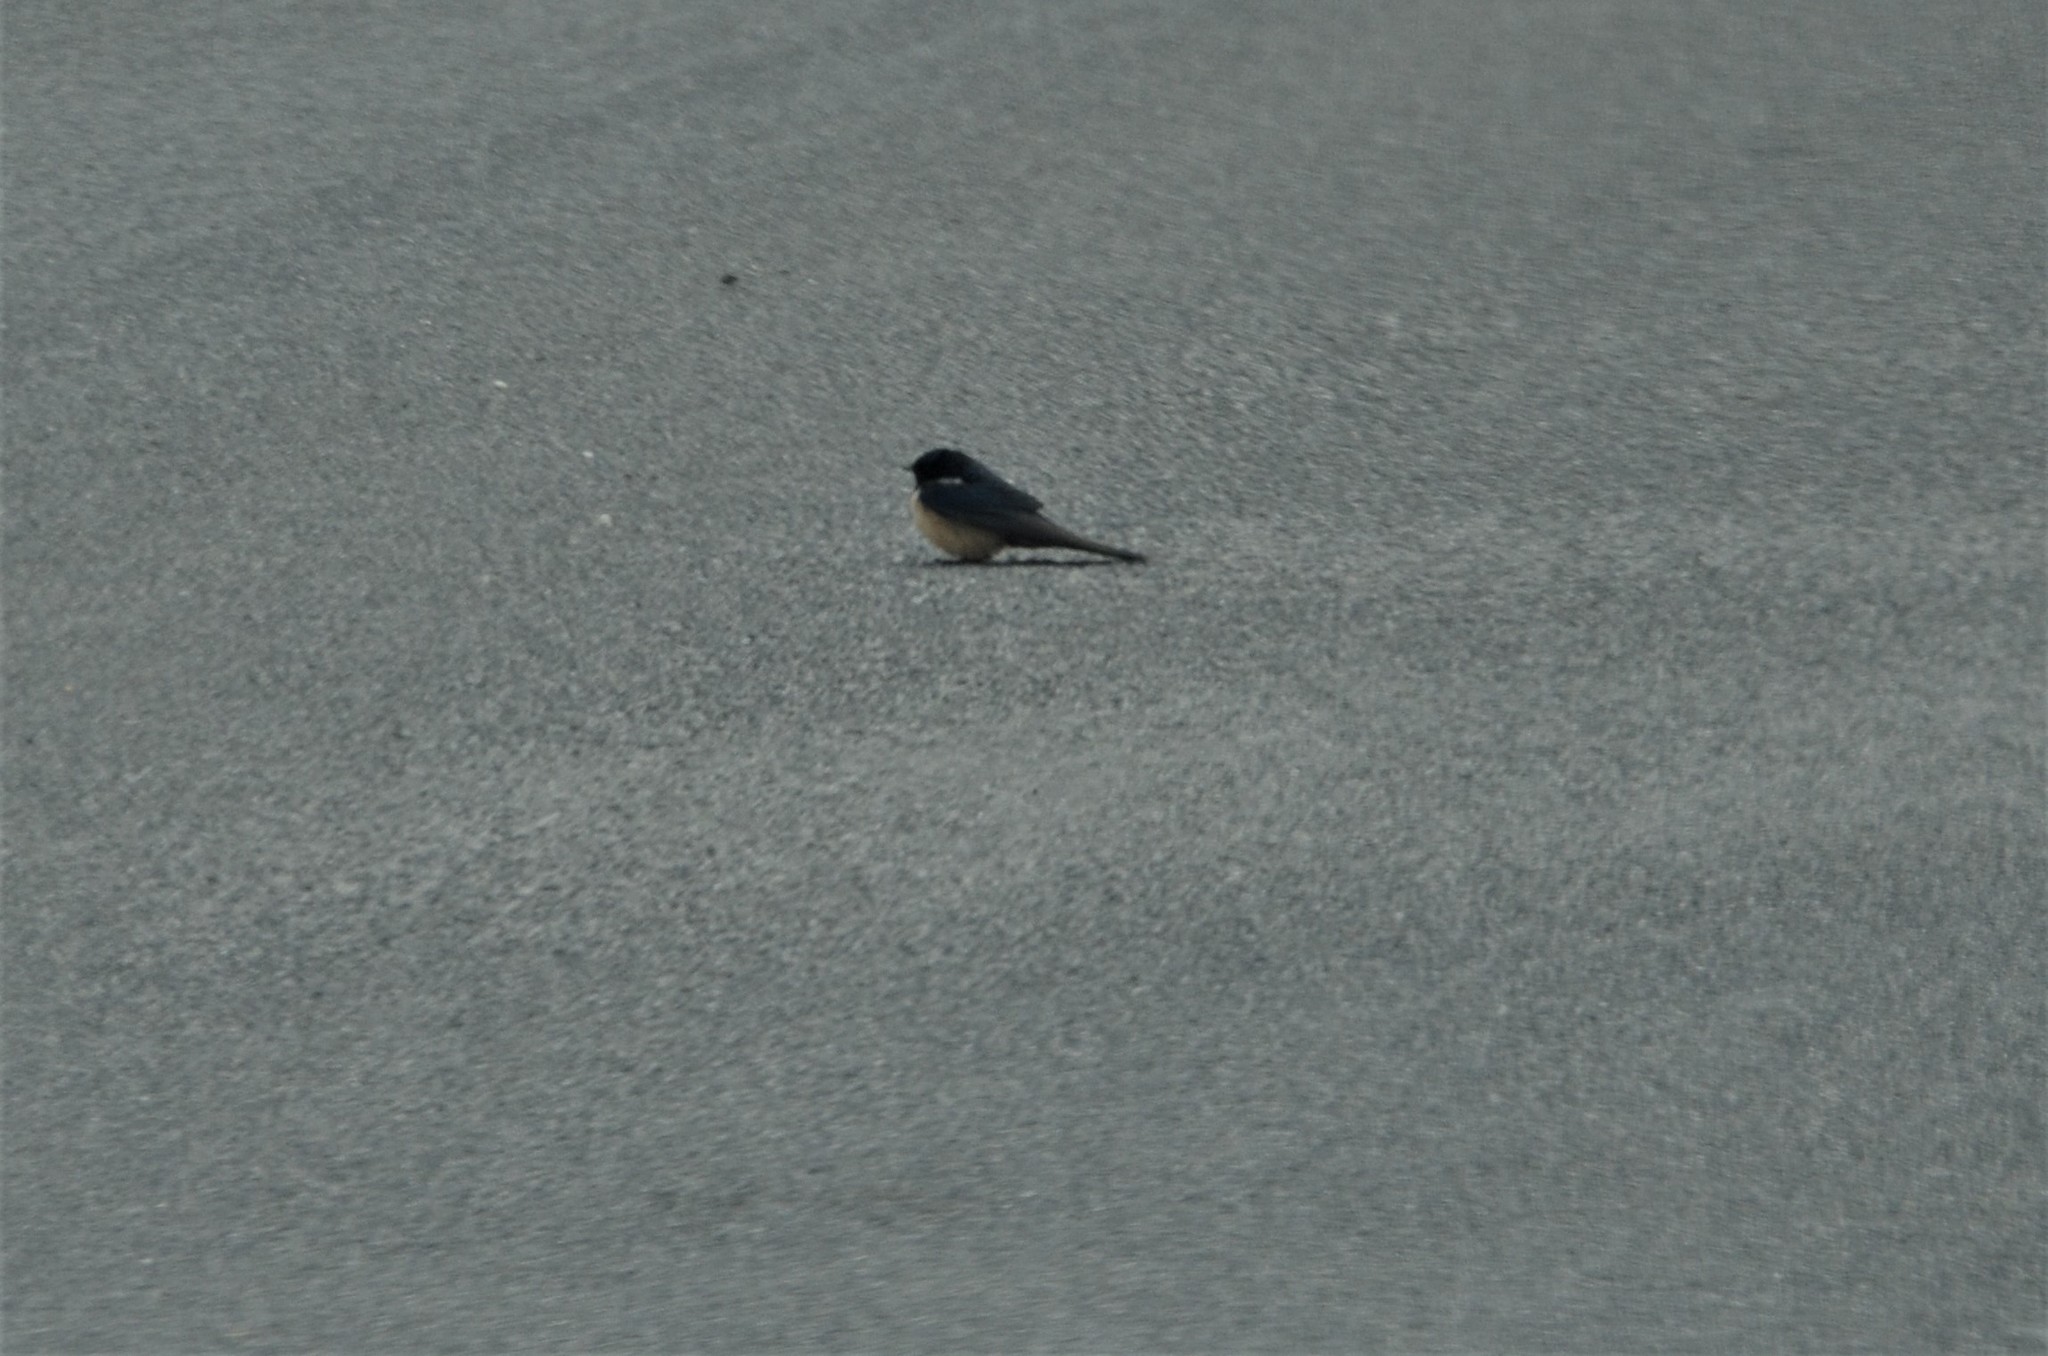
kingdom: Animalia
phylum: Chordata
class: Aves
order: Passeriformes
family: Hirundinidae
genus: Hirundo
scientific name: Hirundo rustica
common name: Barn swallow
